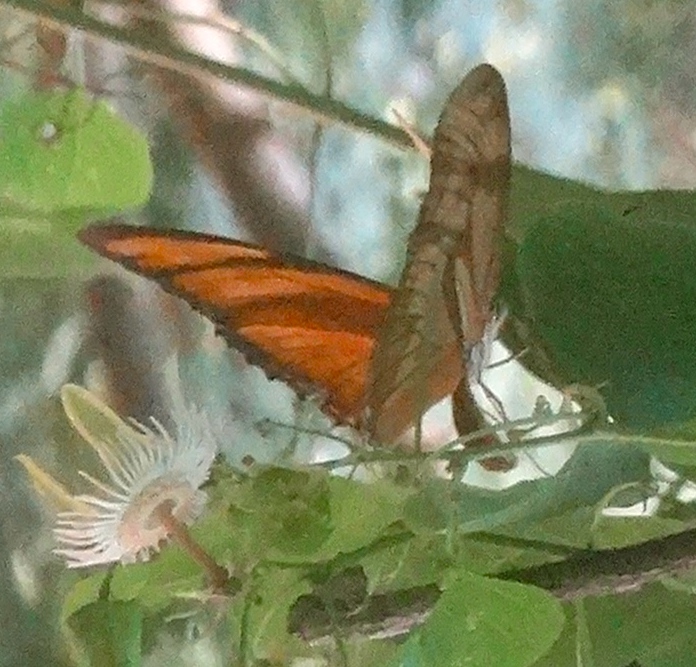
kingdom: Animalia
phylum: Arthropoda
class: Insecta
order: Lepidoptera
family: Nymphalidae
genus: Dryas
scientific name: Dryas iulia
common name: Flambeau
